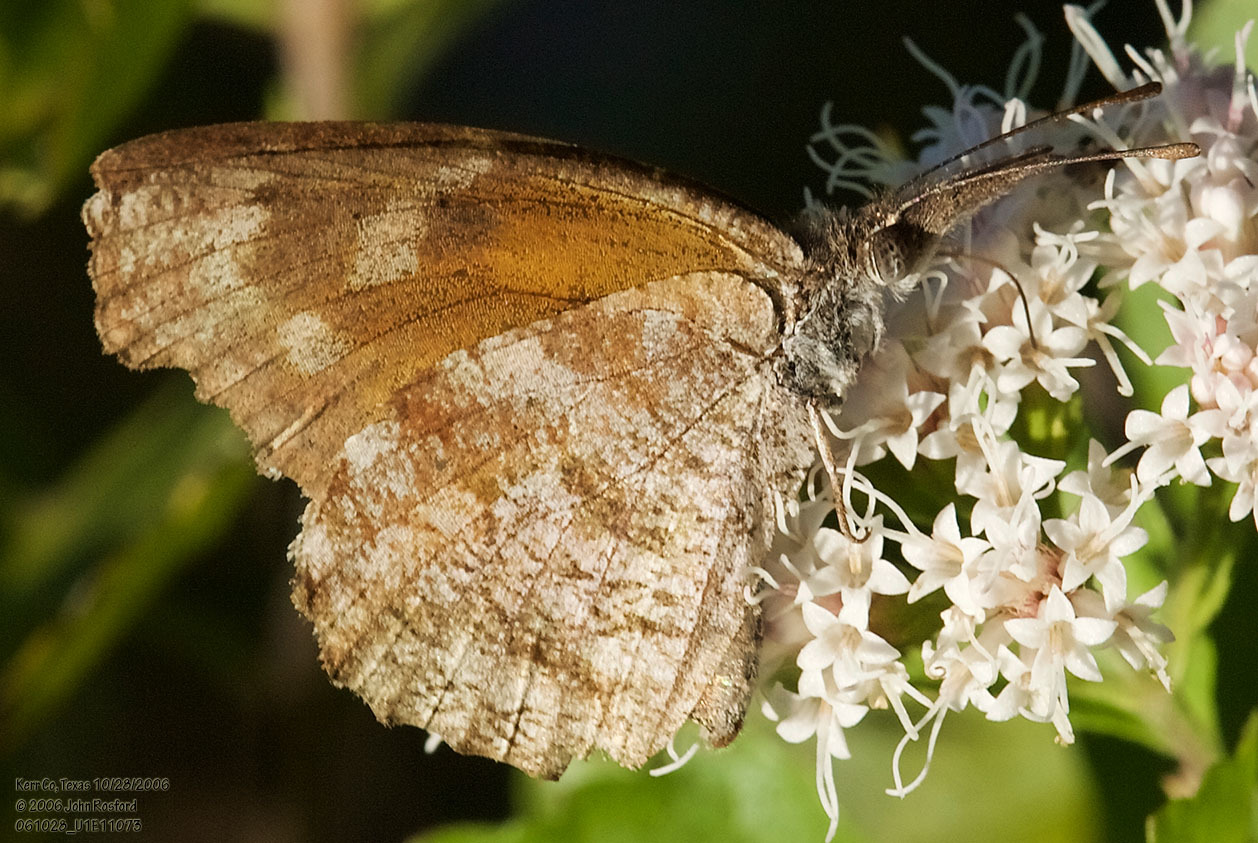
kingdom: Animalia
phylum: Arthropoda
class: Insecta
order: Lepidoptera
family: Nymphalidae
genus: Libytheana
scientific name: Libytheana carinenta
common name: American snout
